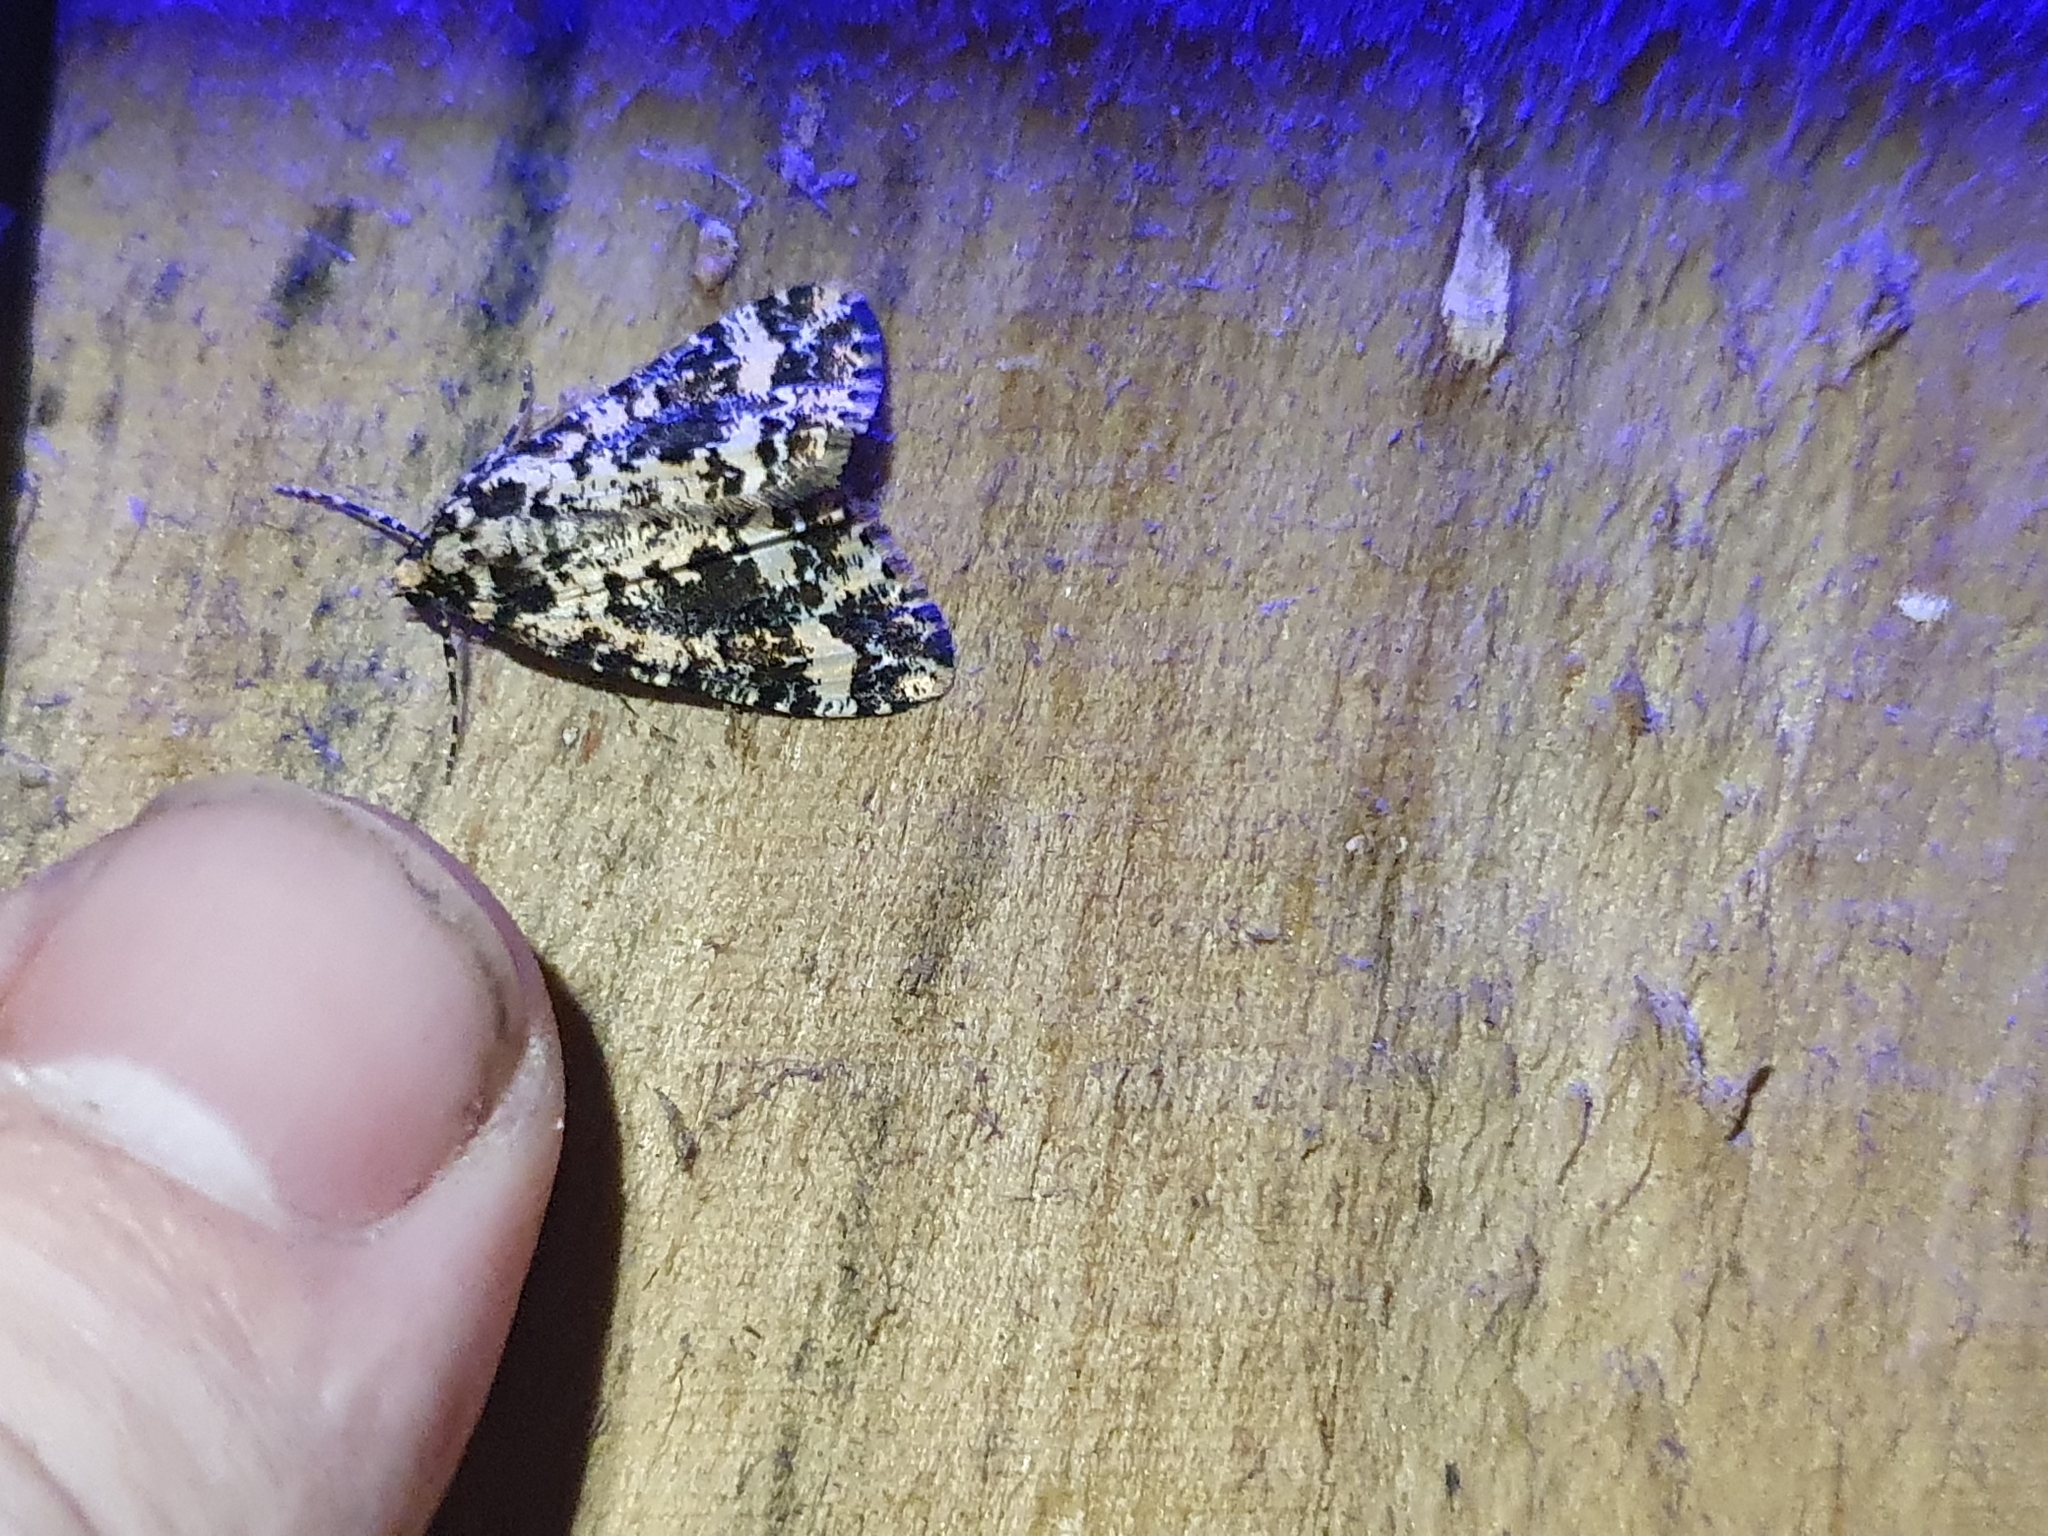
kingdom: Animalia
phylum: Arthropoda
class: Insecta
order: Lepidoptera
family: Geometridae
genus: Pseudocoremia
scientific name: Pseudocoremia leucelaea
